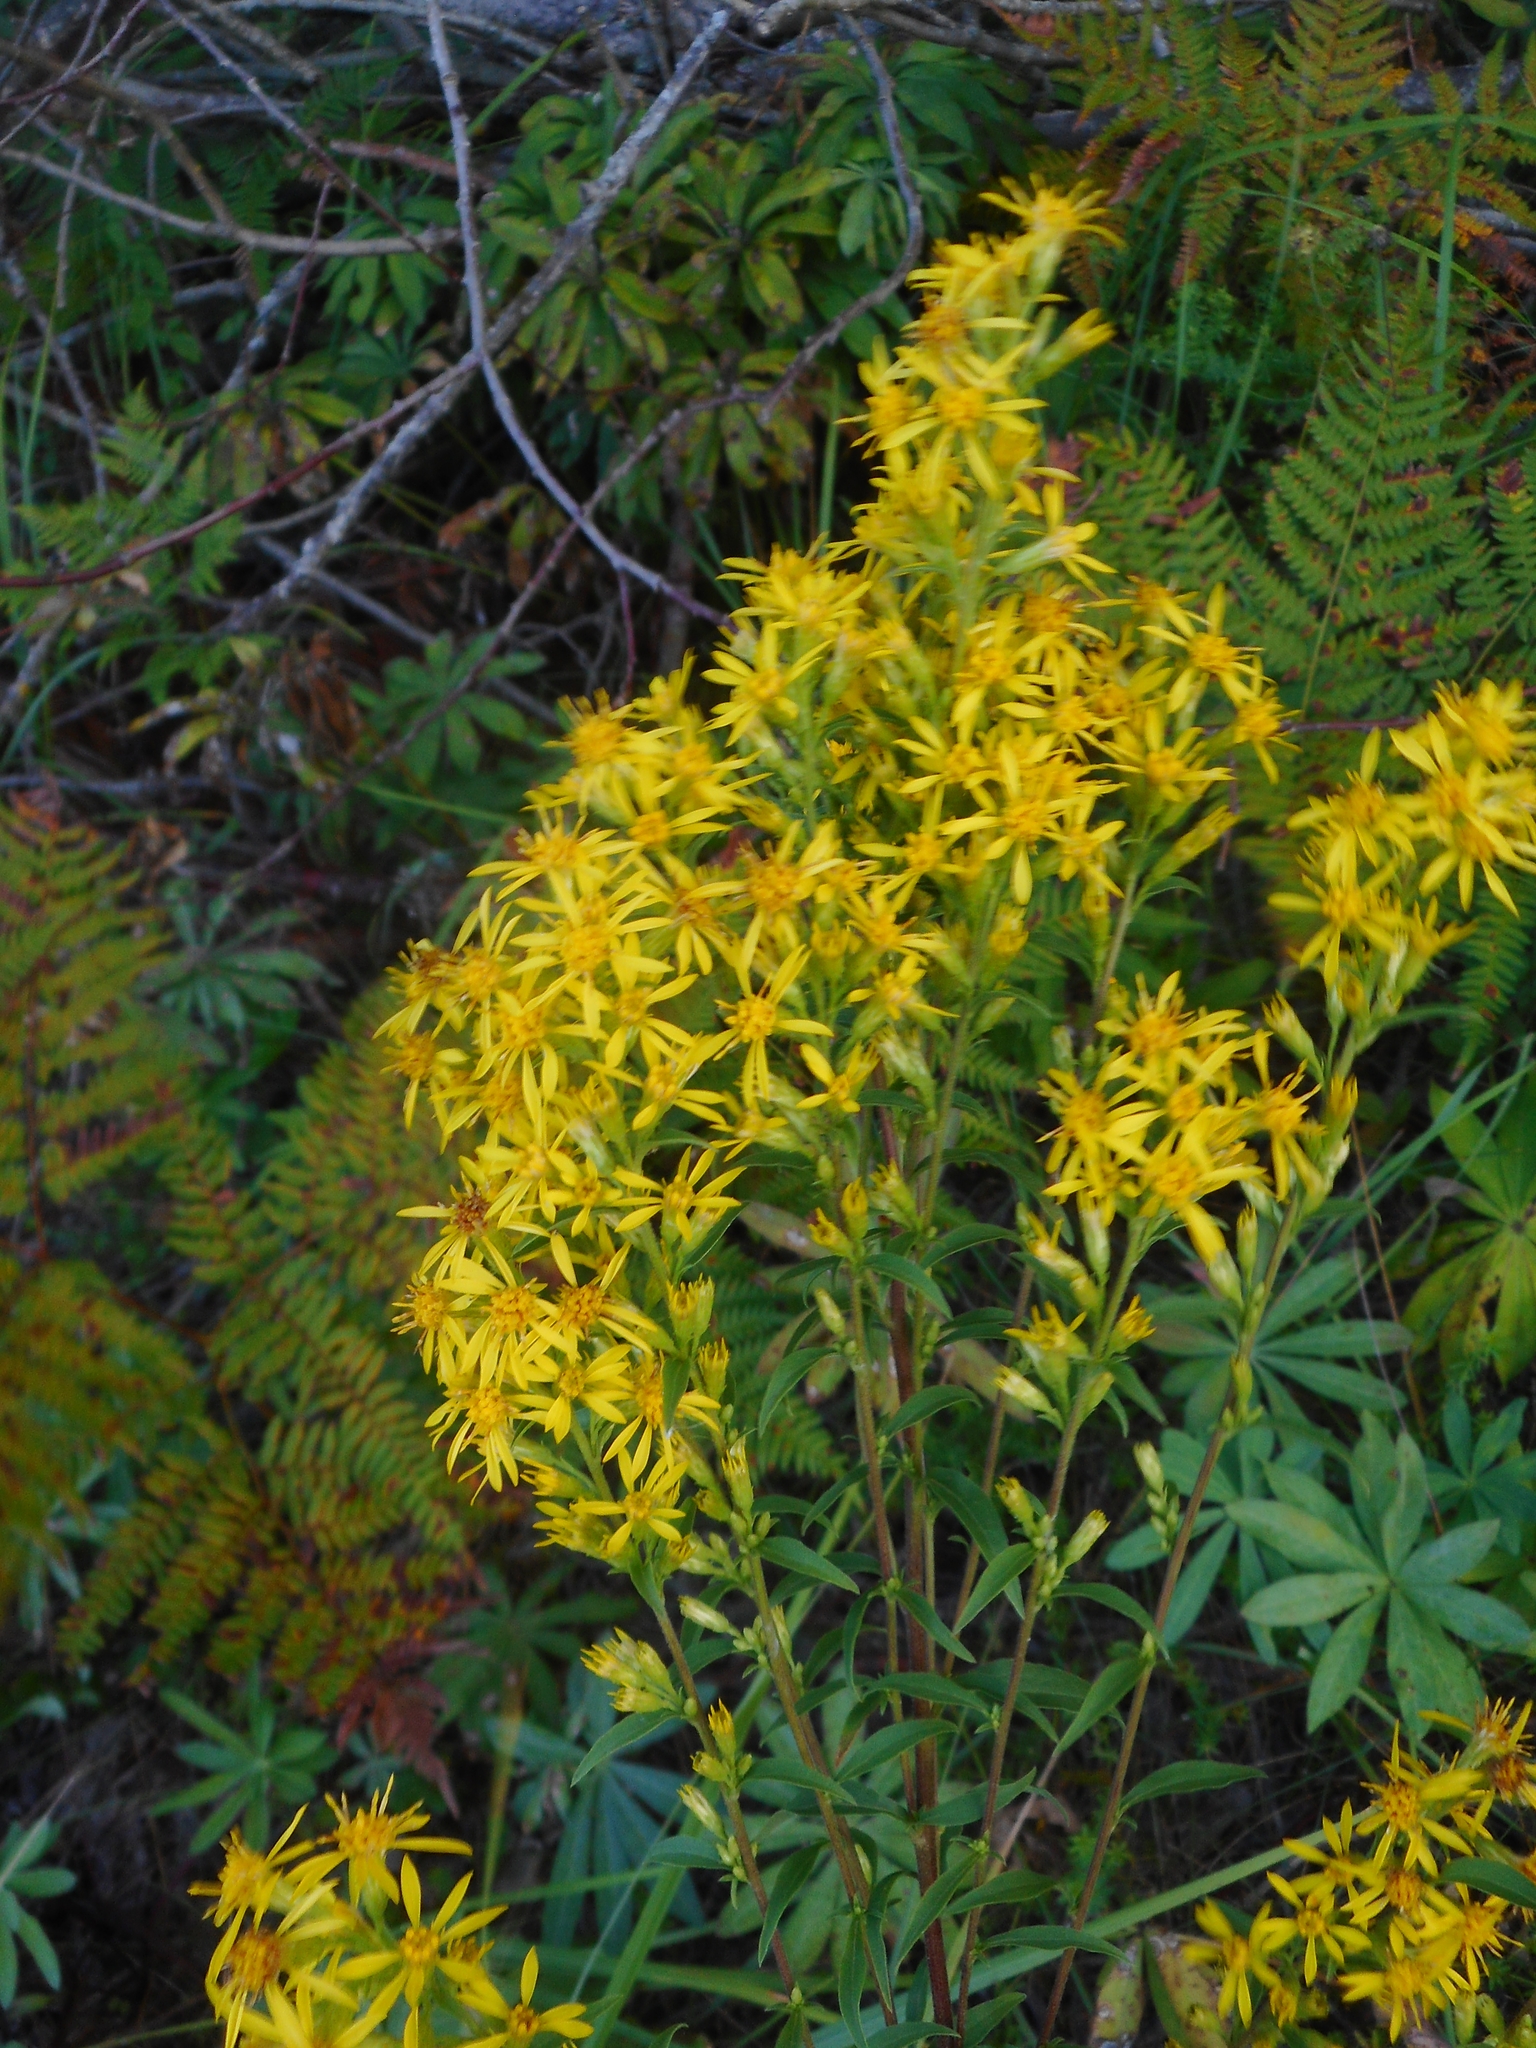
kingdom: Plantae
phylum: Tracheophyta
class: Magnoliopsida
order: Asterales
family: Asteraceae
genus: Solidago
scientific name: Solidago virgaurea
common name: Goldenrod
